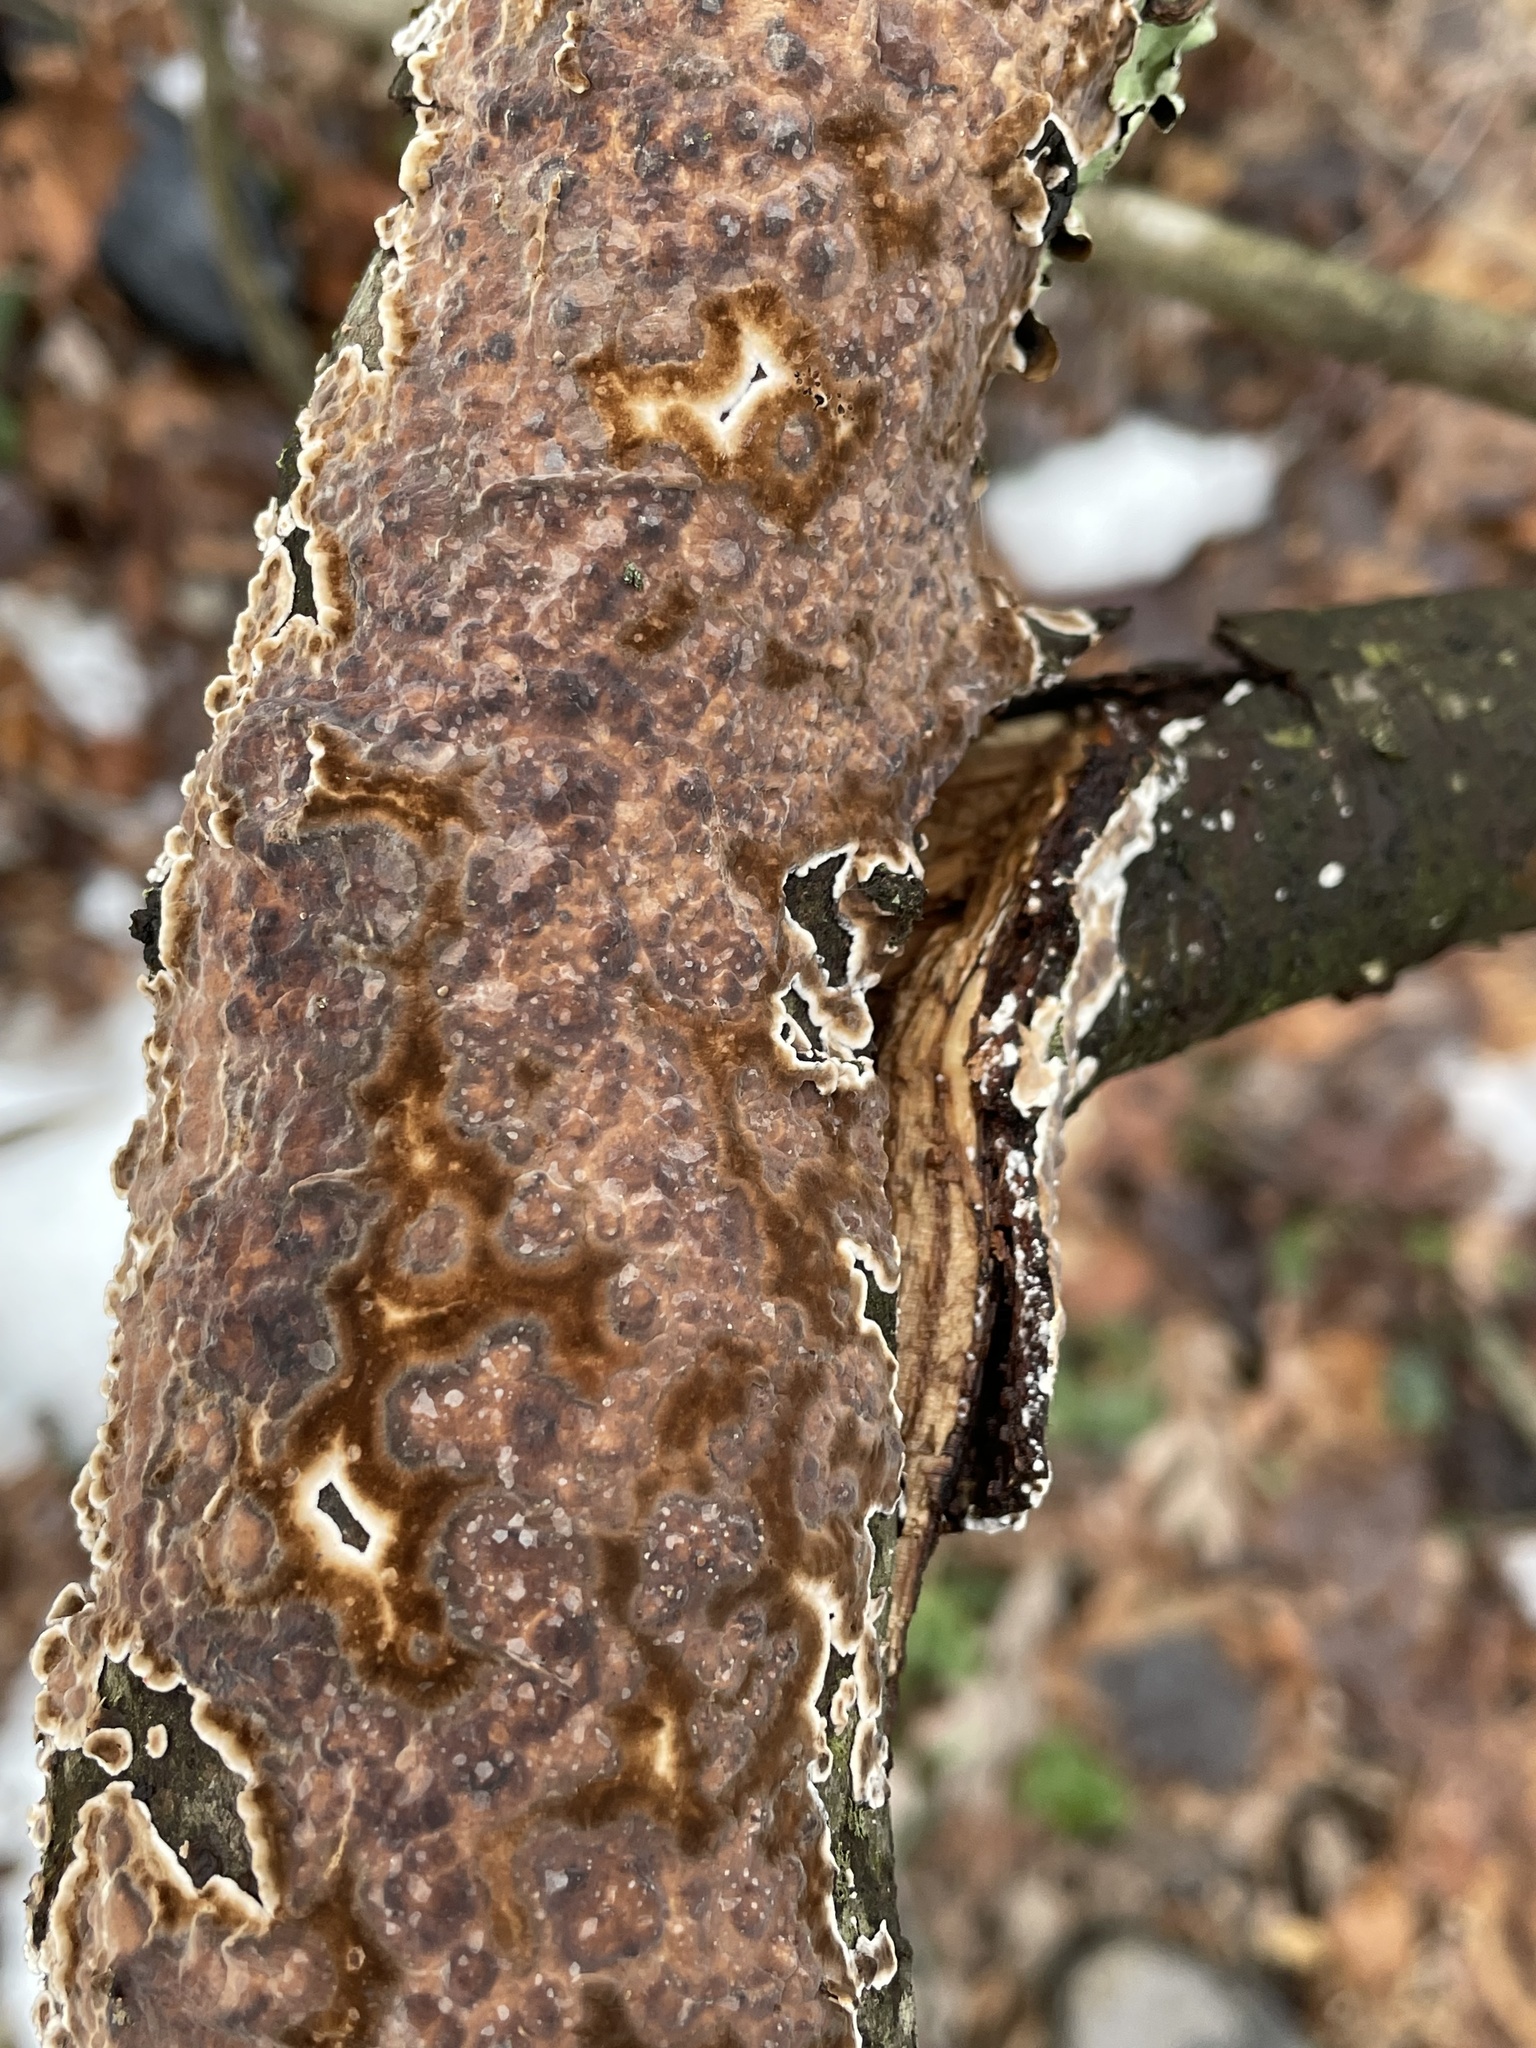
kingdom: Fungi
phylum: Basidiomycota
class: Agaricomycetes
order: Russulales
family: Peniophoraceae
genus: Peniophora
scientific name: Peniophora albobadia
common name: Giraffe spots
